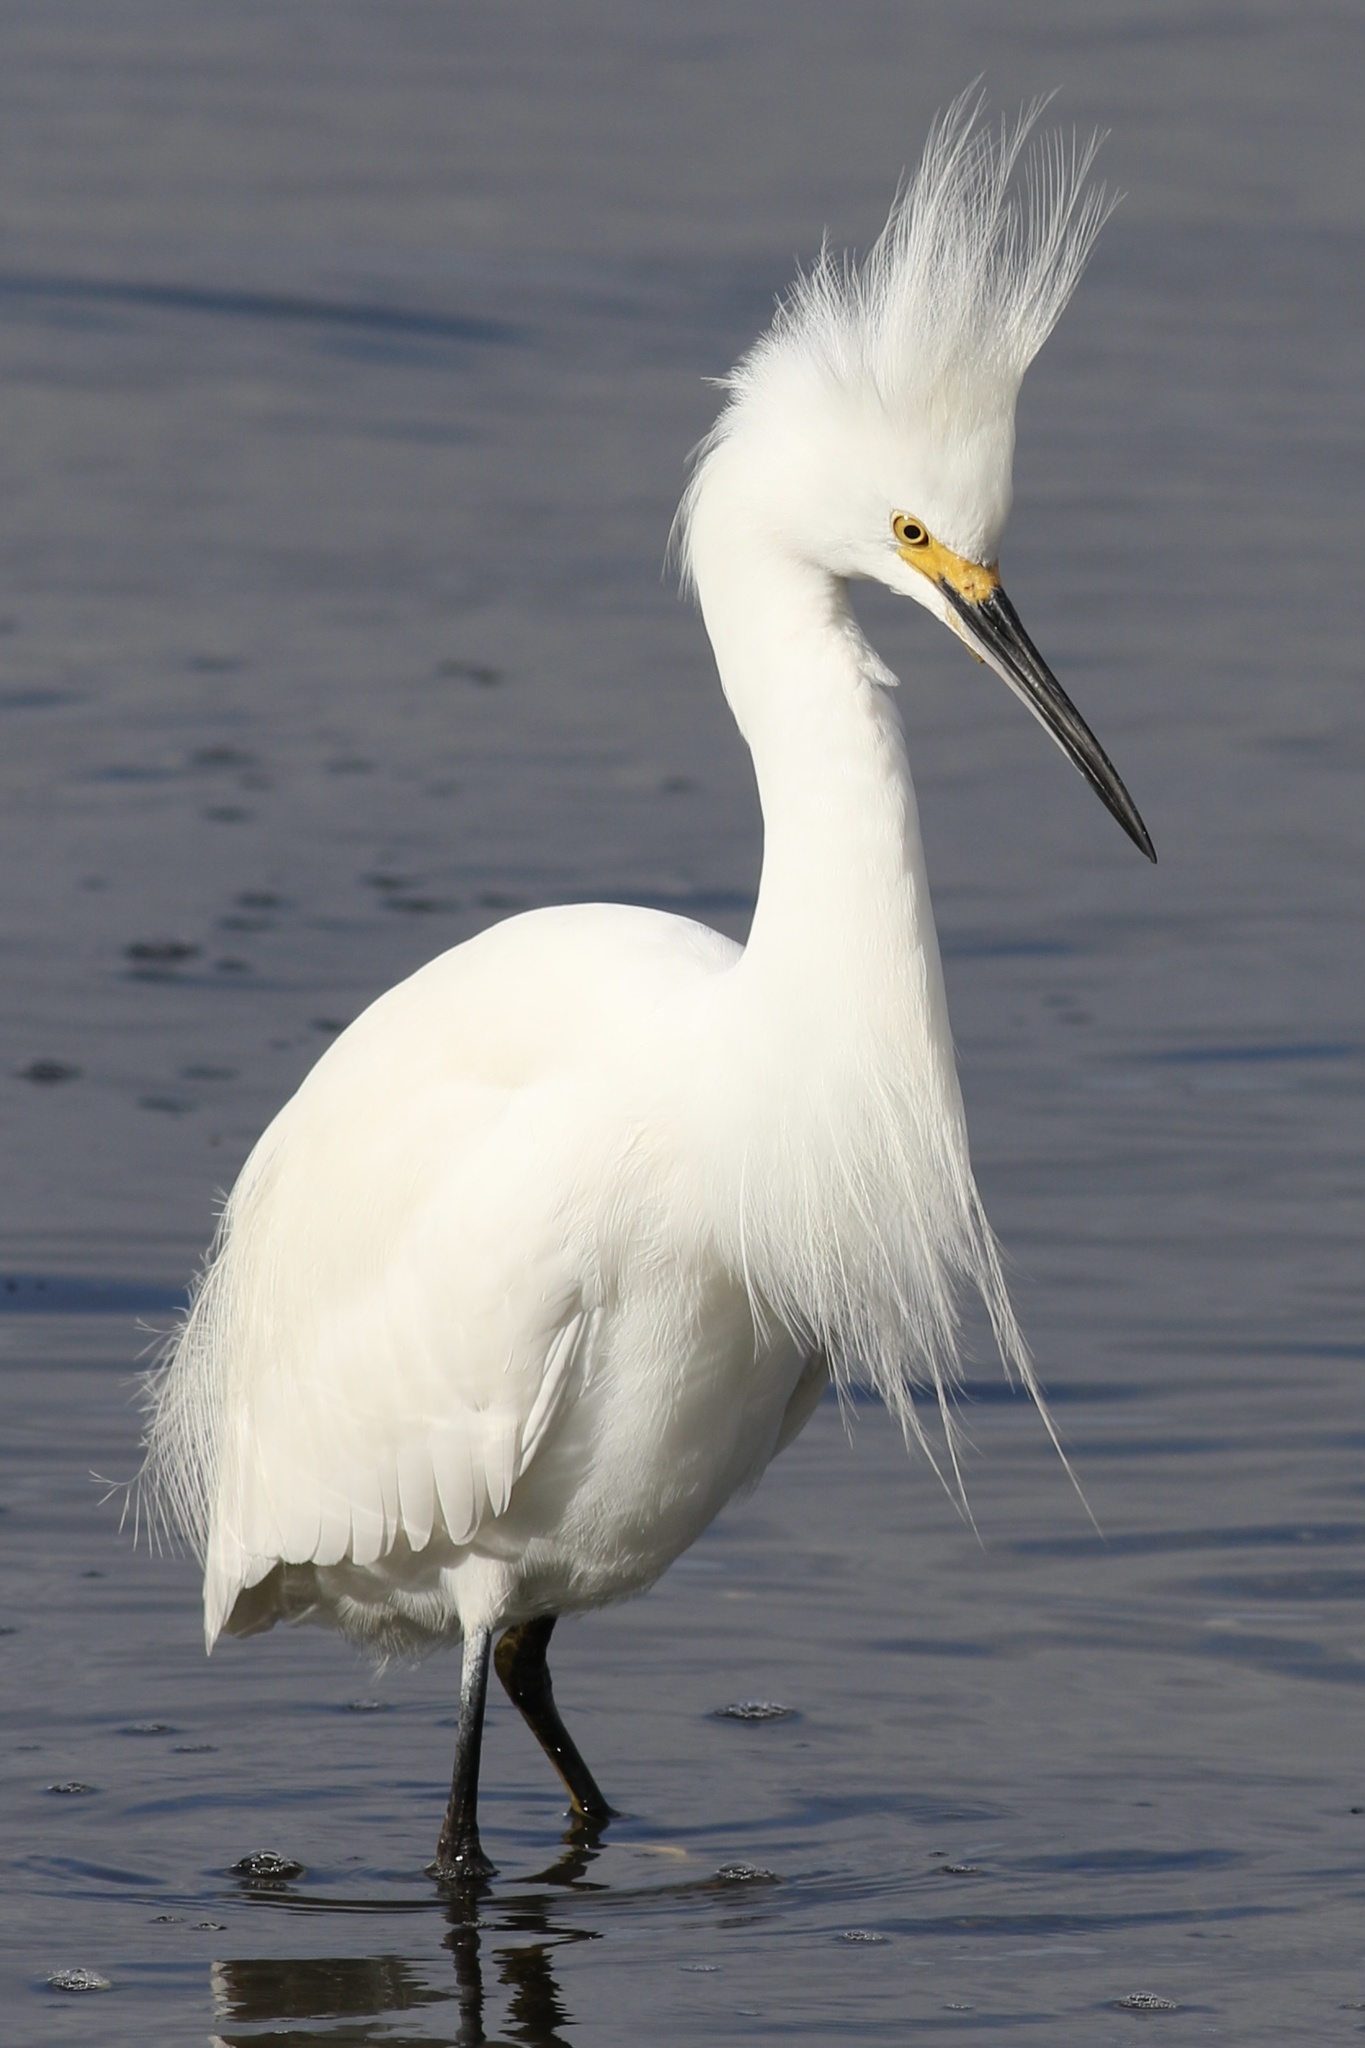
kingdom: Animalia
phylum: Chordata
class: Aves
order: Pelecaniformes
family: Ardeidae
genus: Egretta
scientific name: Egretta thula
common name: Snowy egret
